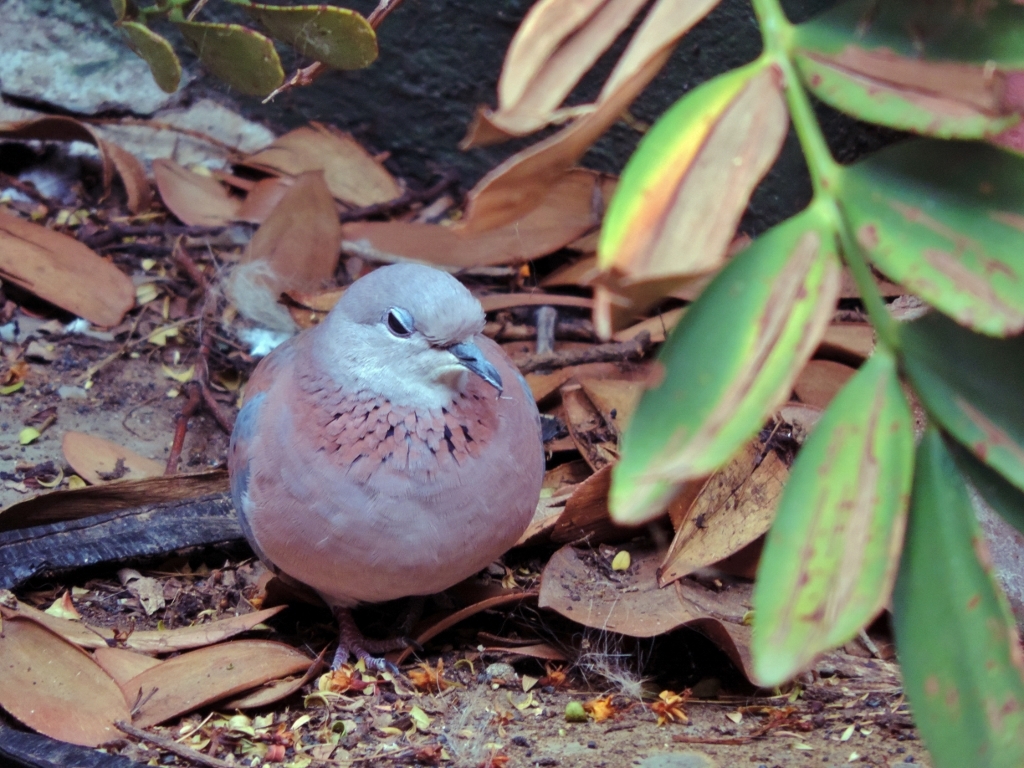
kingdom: Animalia
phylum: Chordata
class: Aves
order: Columbiformes
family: Columbidae
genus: Spilopelia
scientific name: Spilopelia senegalensis
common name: Laughing dove
